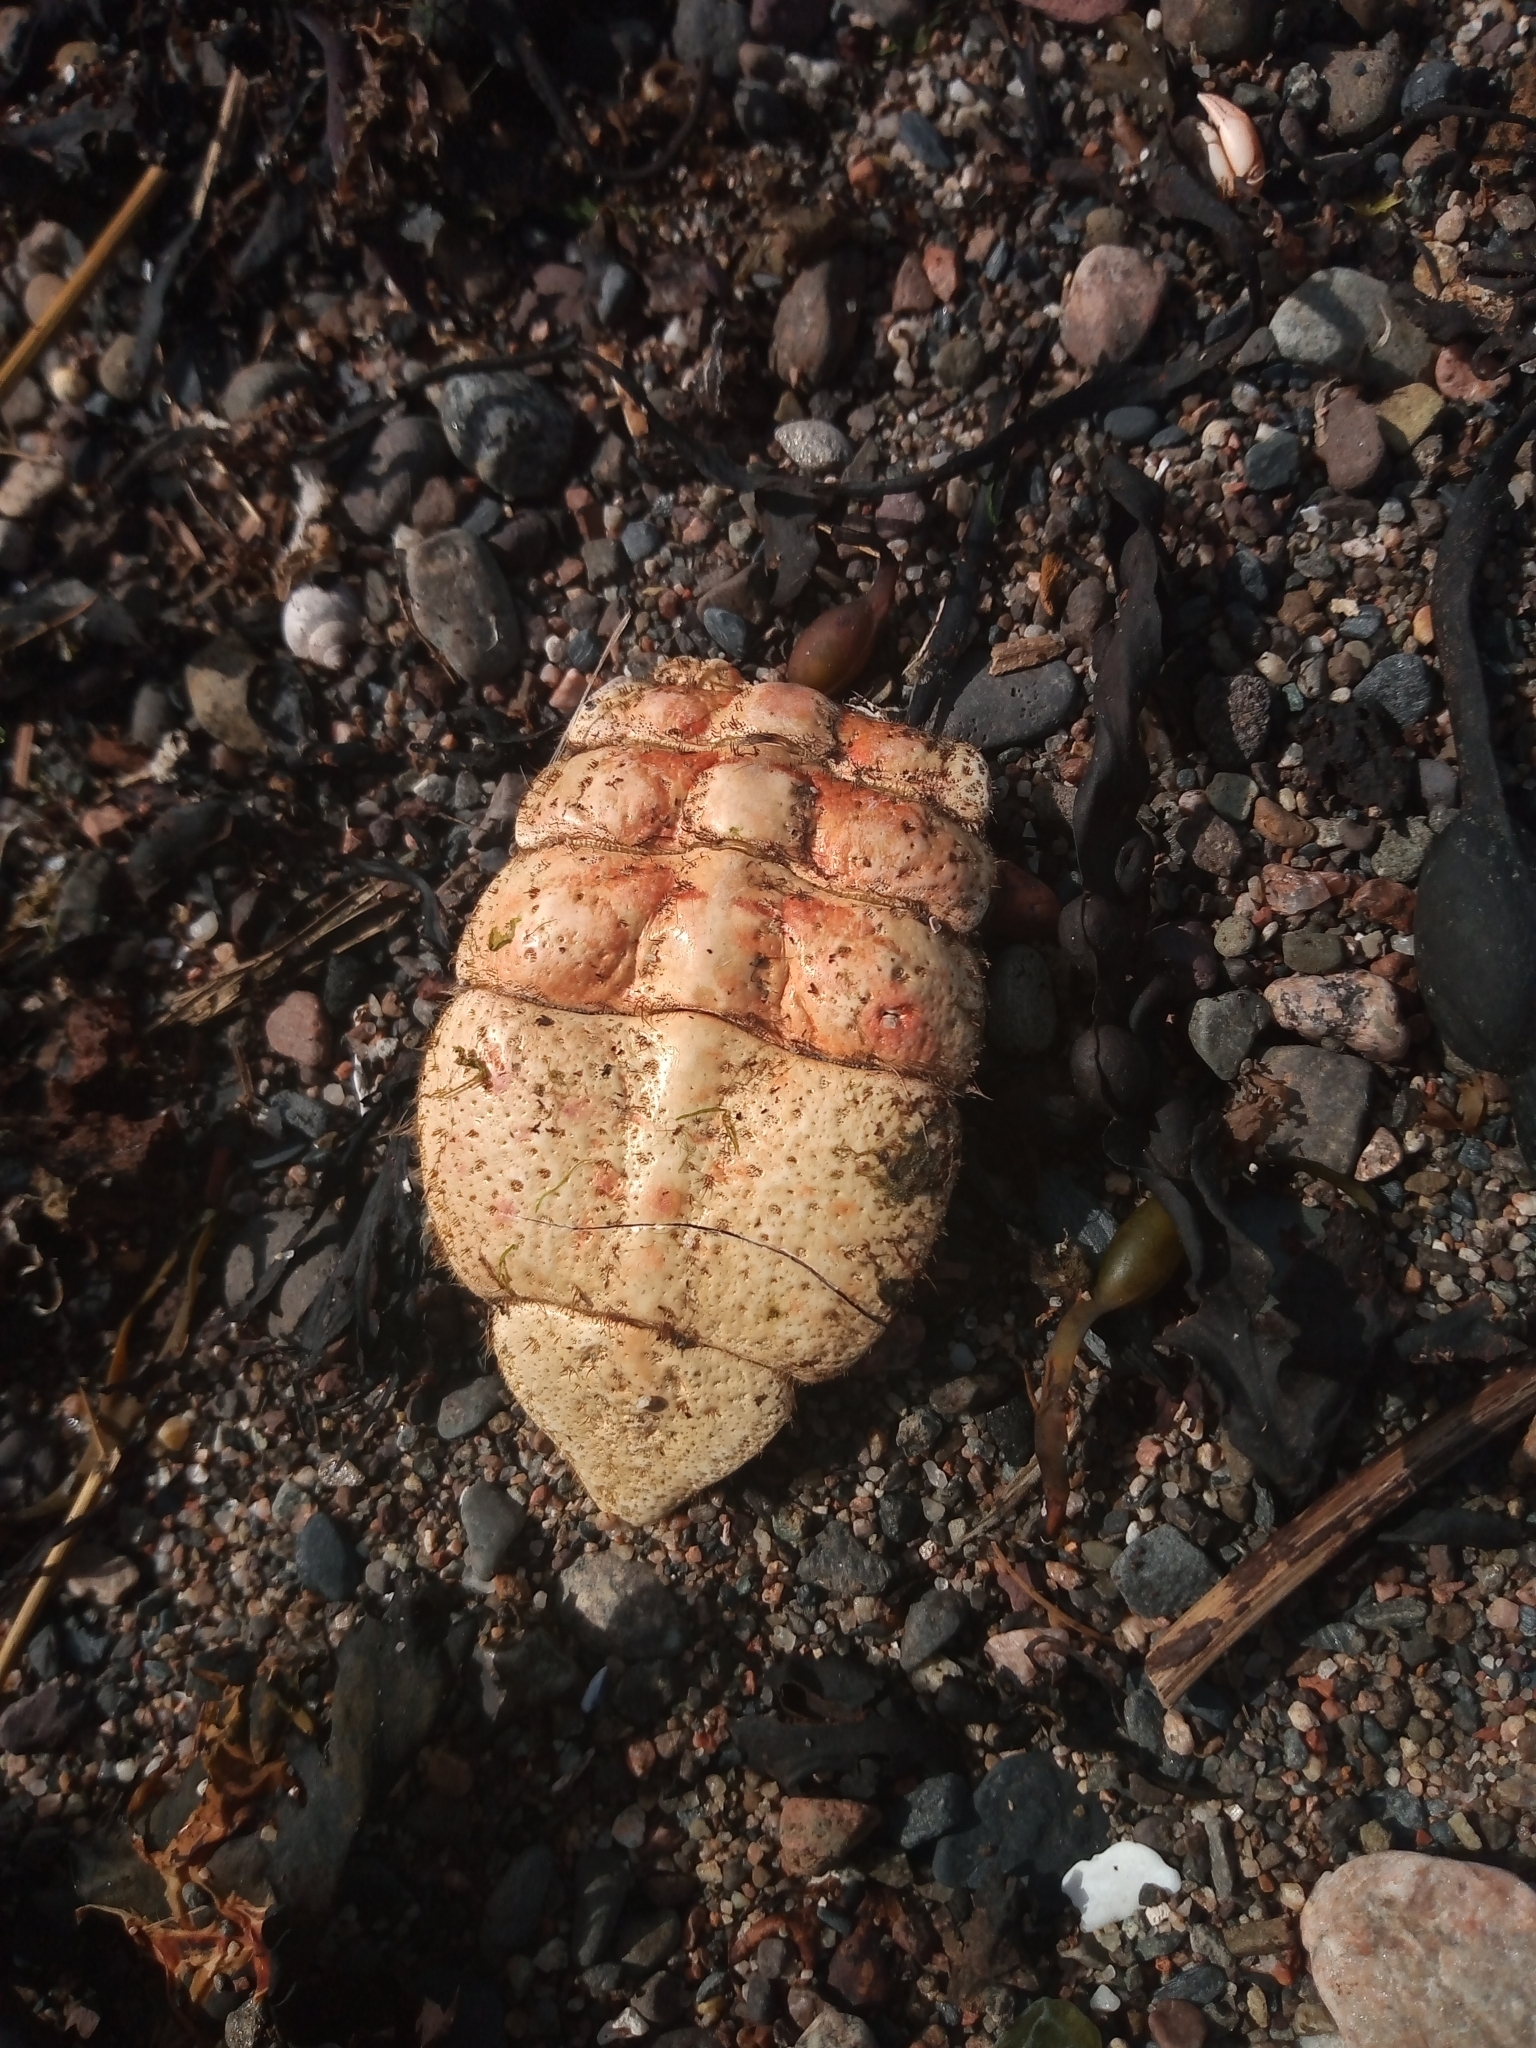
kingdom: Animalia
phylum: Arthropoda
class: Malacostraca
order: Decapoda
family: Cancridae
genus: Cancer
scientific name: Cancer pagurus
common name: Edible crab
